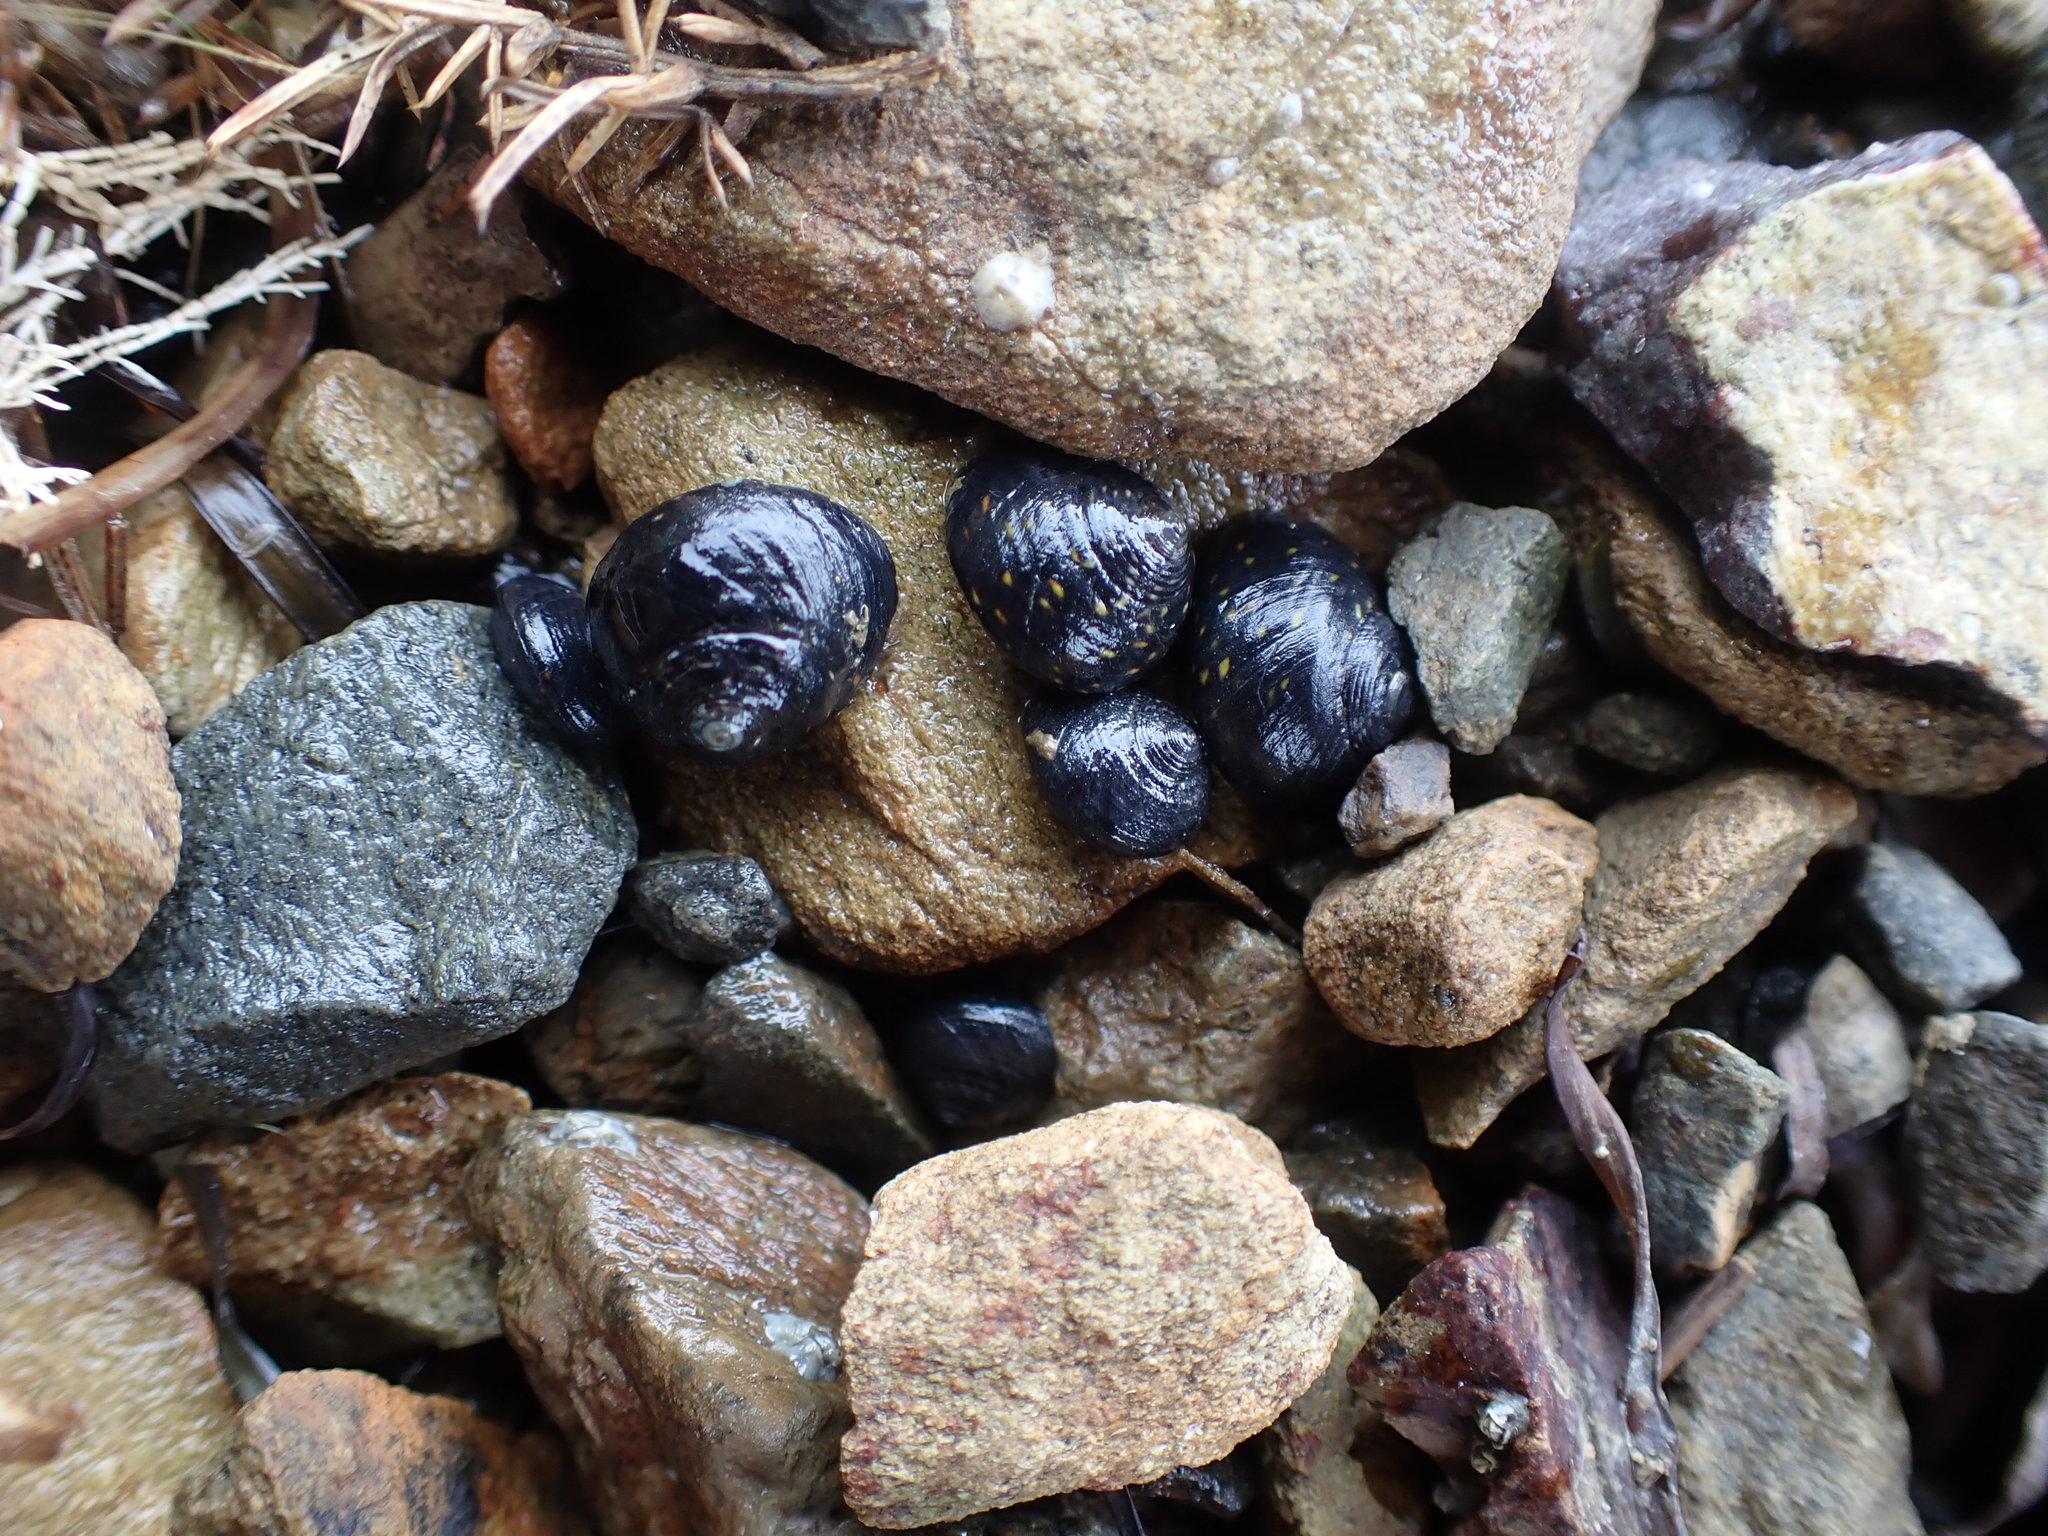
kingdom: Animalia
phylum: Mollusca
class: Gastropoda
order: Trochida
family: Trochidae
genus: Diloma
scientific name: Diloma aridum
